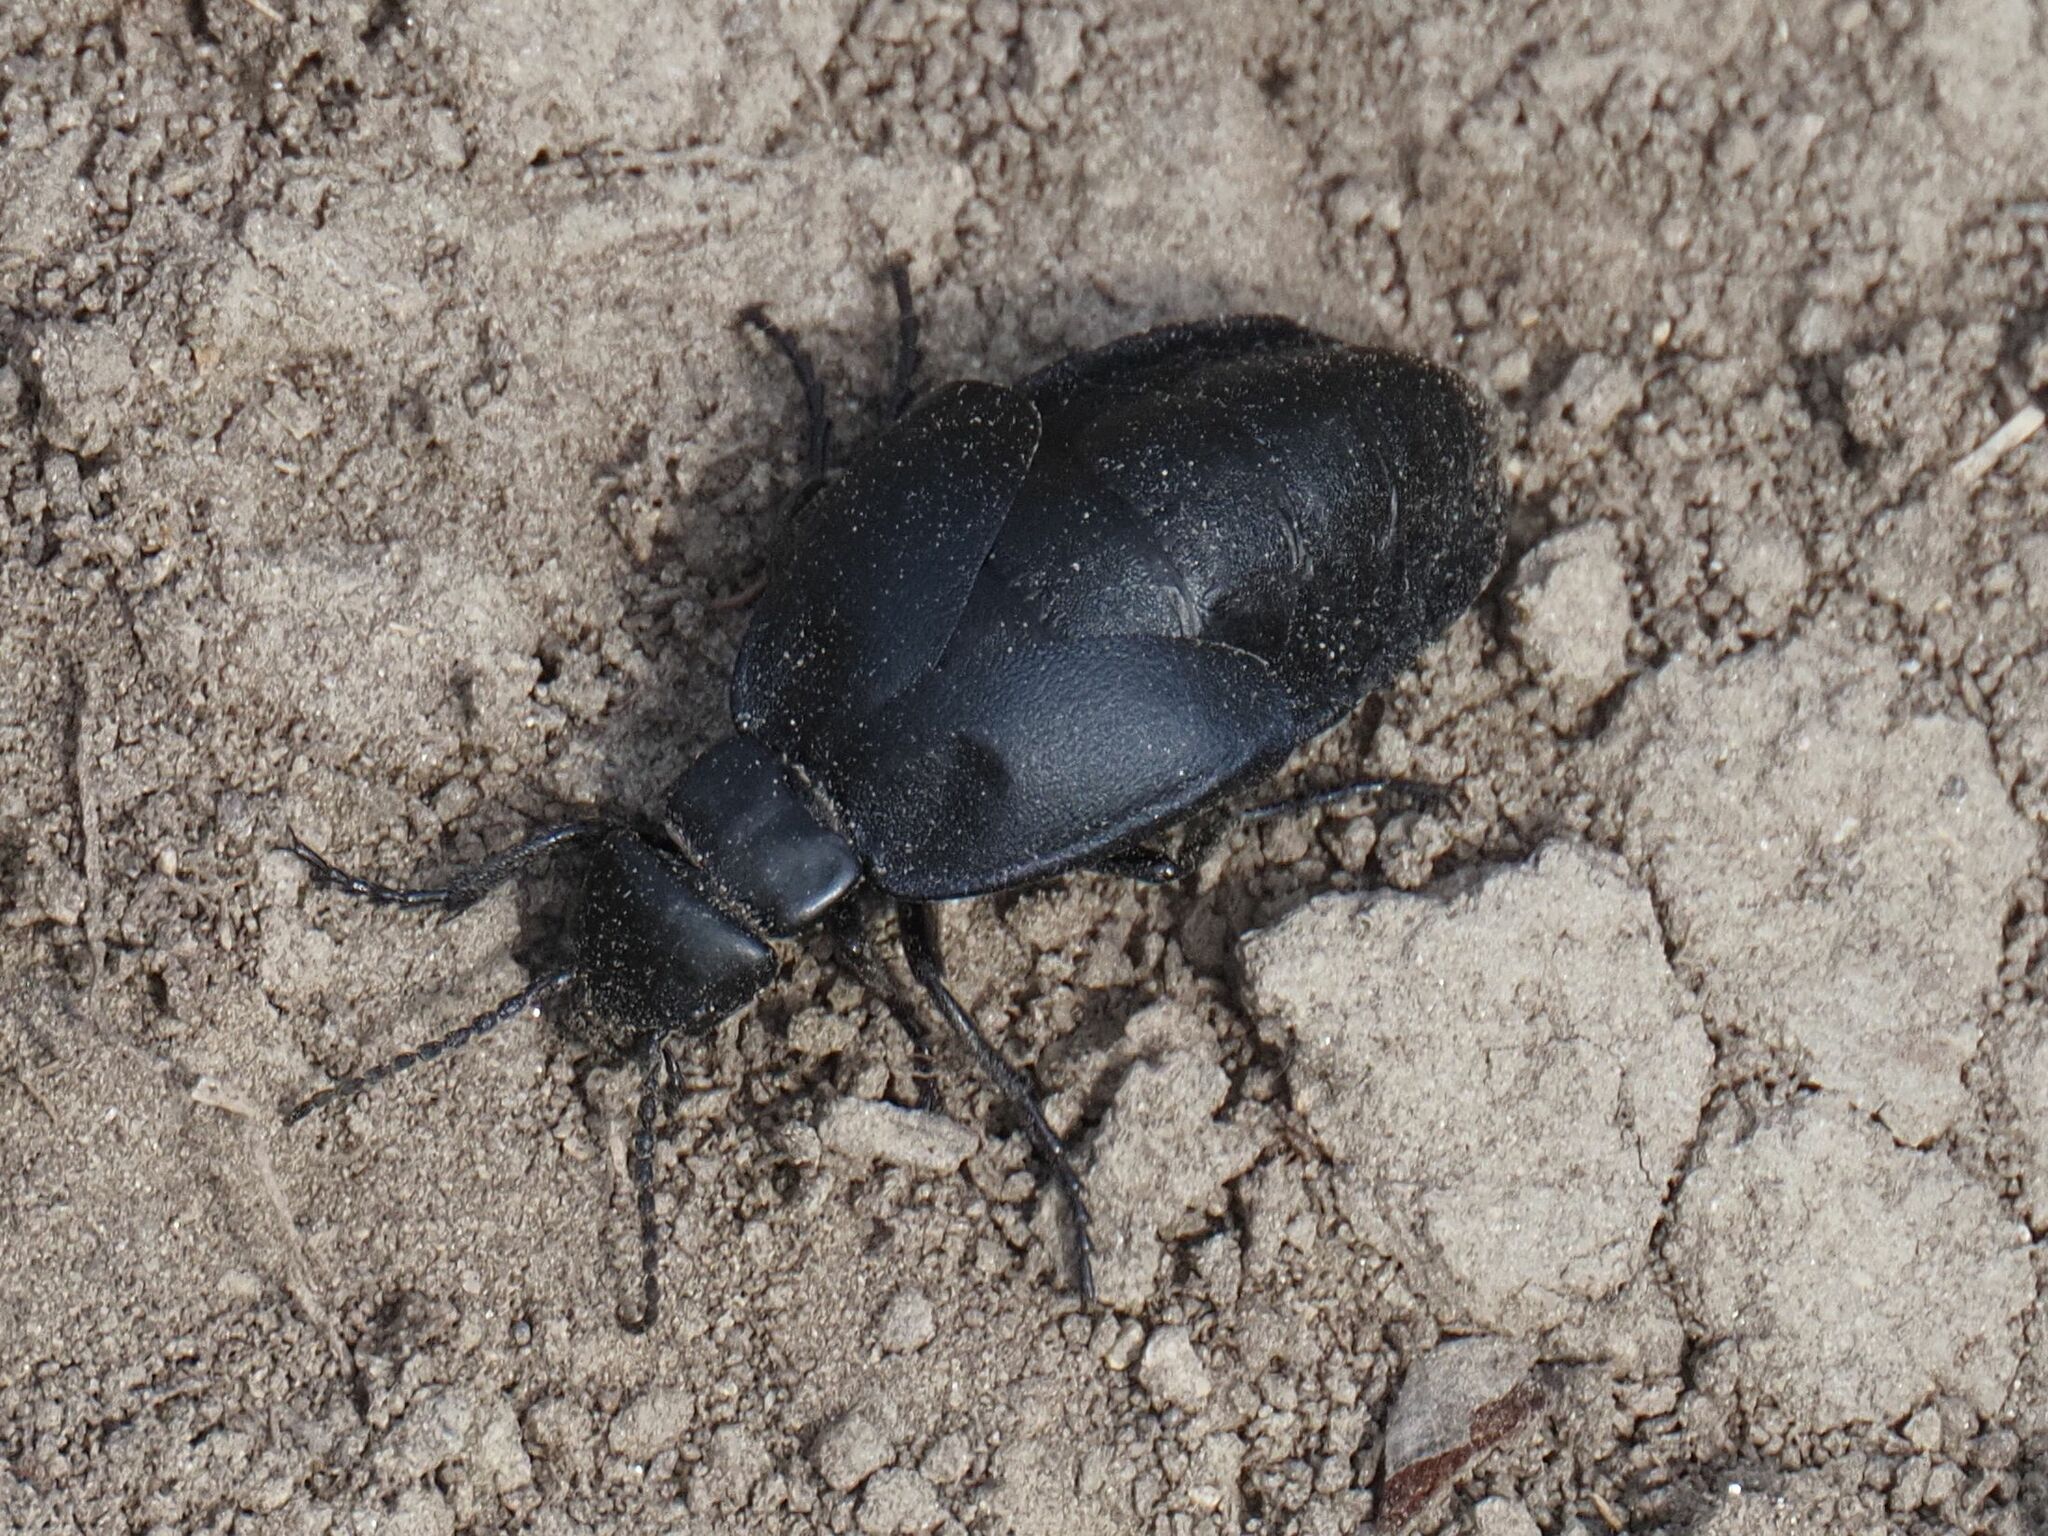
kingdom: Animalia
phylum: Arthropoda
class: Insecta
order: Coleoptera
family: Meloidae
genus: Meloe
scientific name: Meloe uralensis
